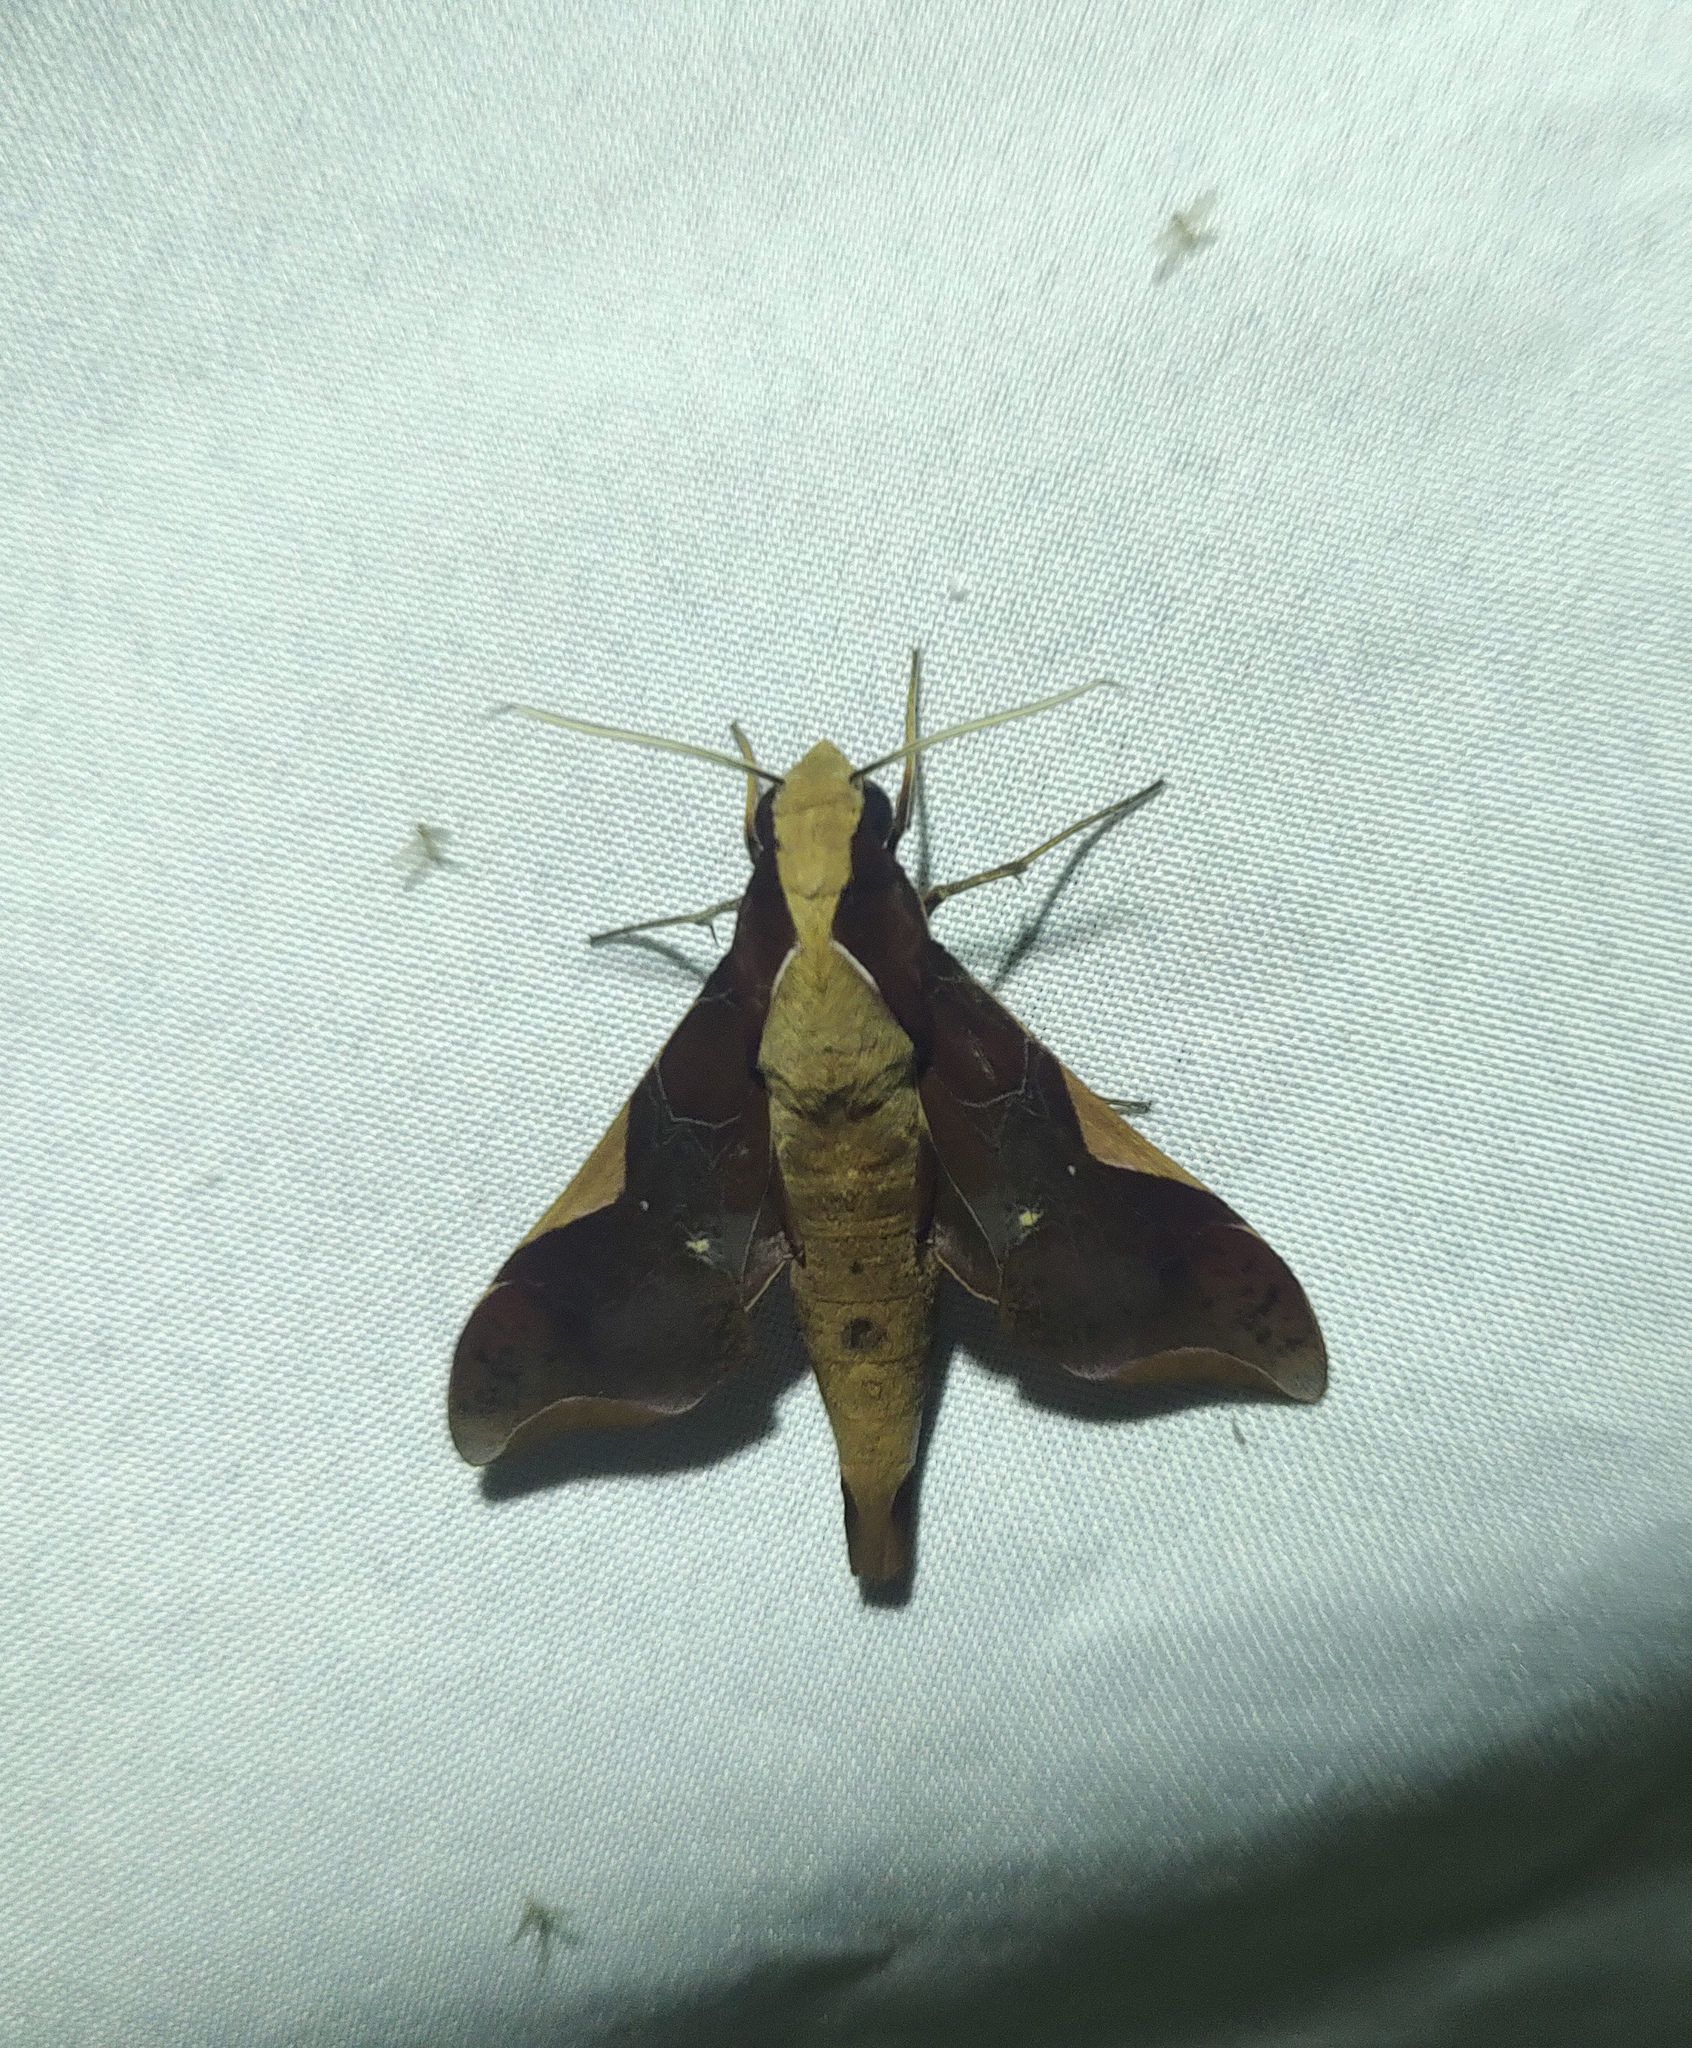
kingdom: Animalia
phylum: Arthropoda
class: Insecta
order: Lepidoptera
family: Sphingidae
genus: Callionima
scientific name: Callionima nomius
